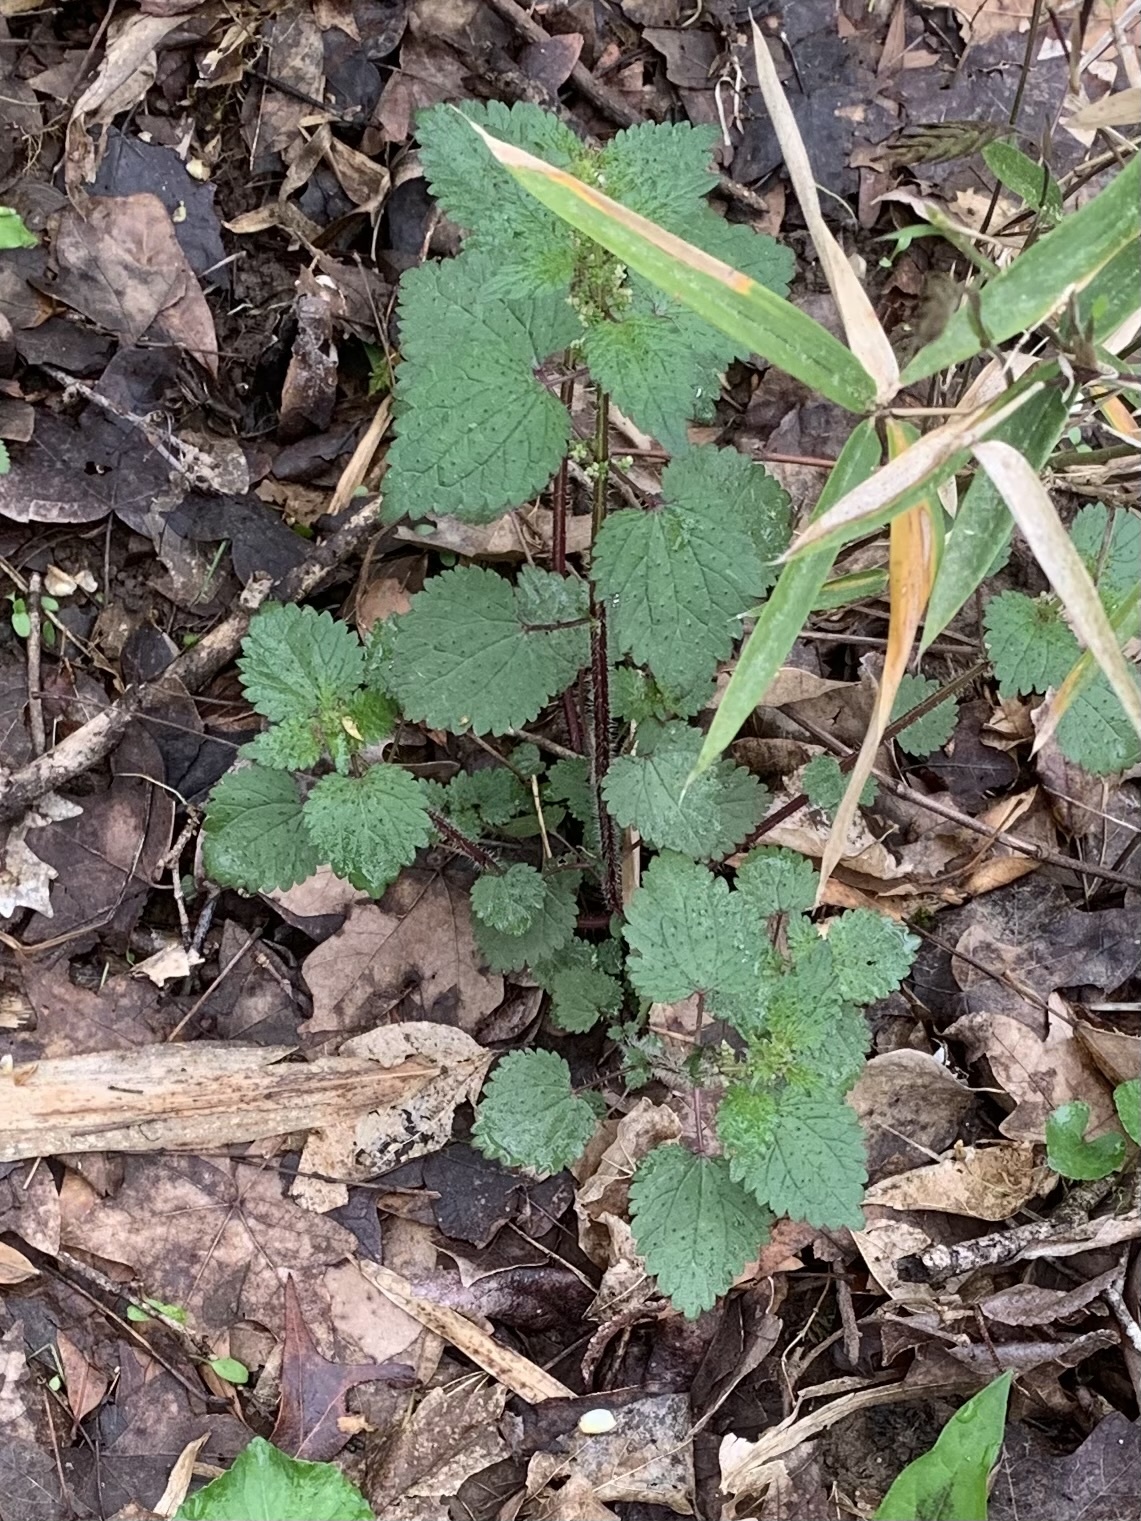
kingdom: Plantae
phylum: Tracheophyta
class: Magnoliopsida
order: Rosales
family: Urticaceae
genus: Urtica
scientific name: Urtica chamaedryoides
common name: Heart-leaf nettle
